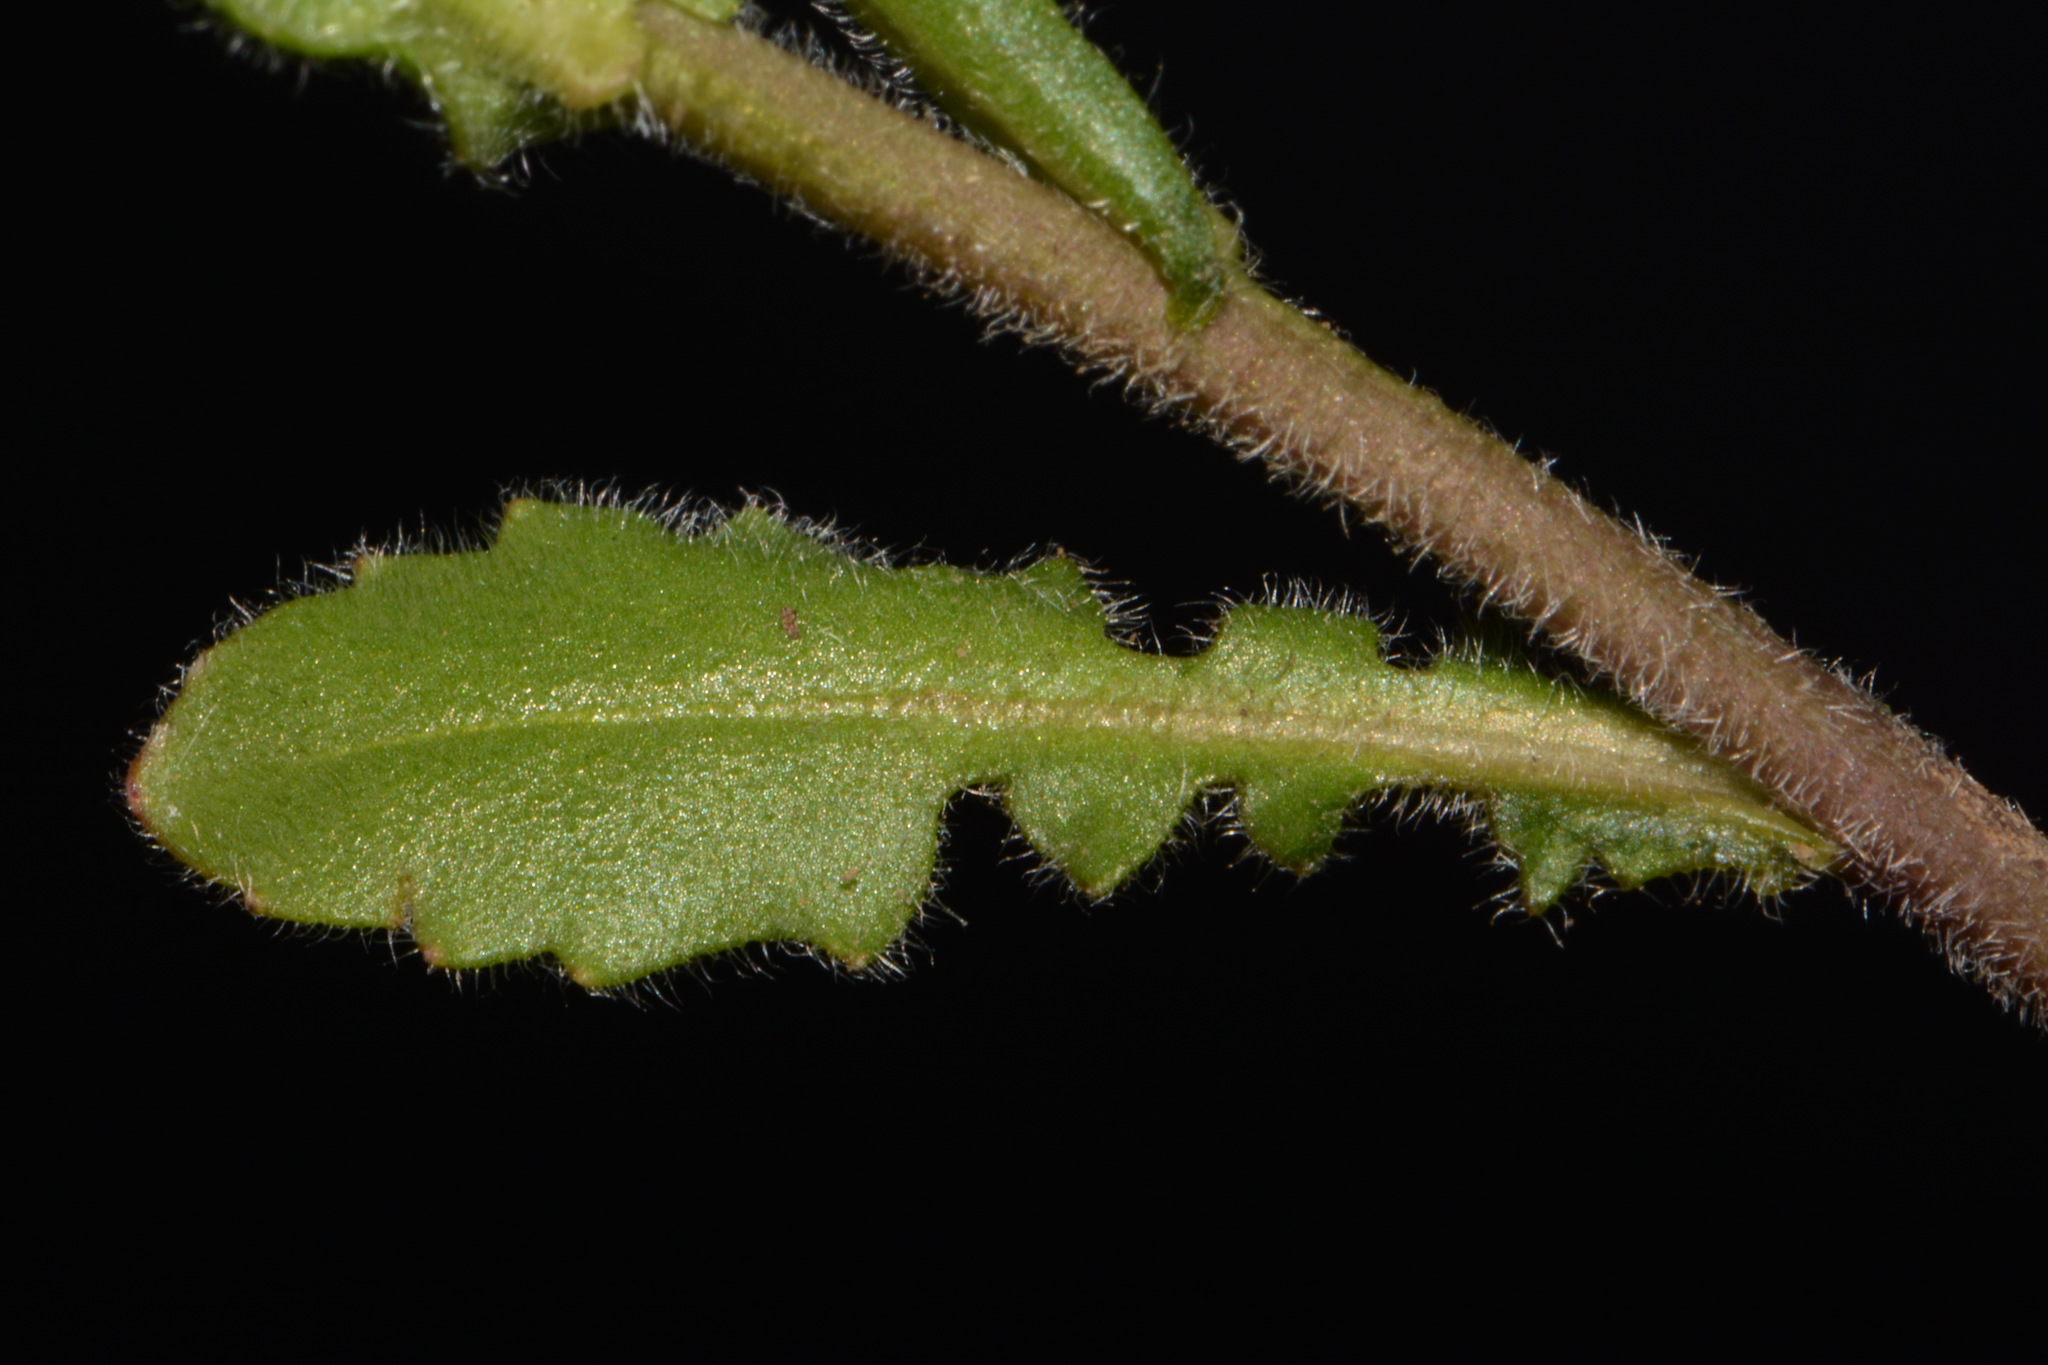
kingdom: Plantae
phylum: Tracheophyta
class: Magnoliopsida
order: Brassicales
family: Brassicaceae
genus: Paysonia
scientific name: Paysonia densipila
